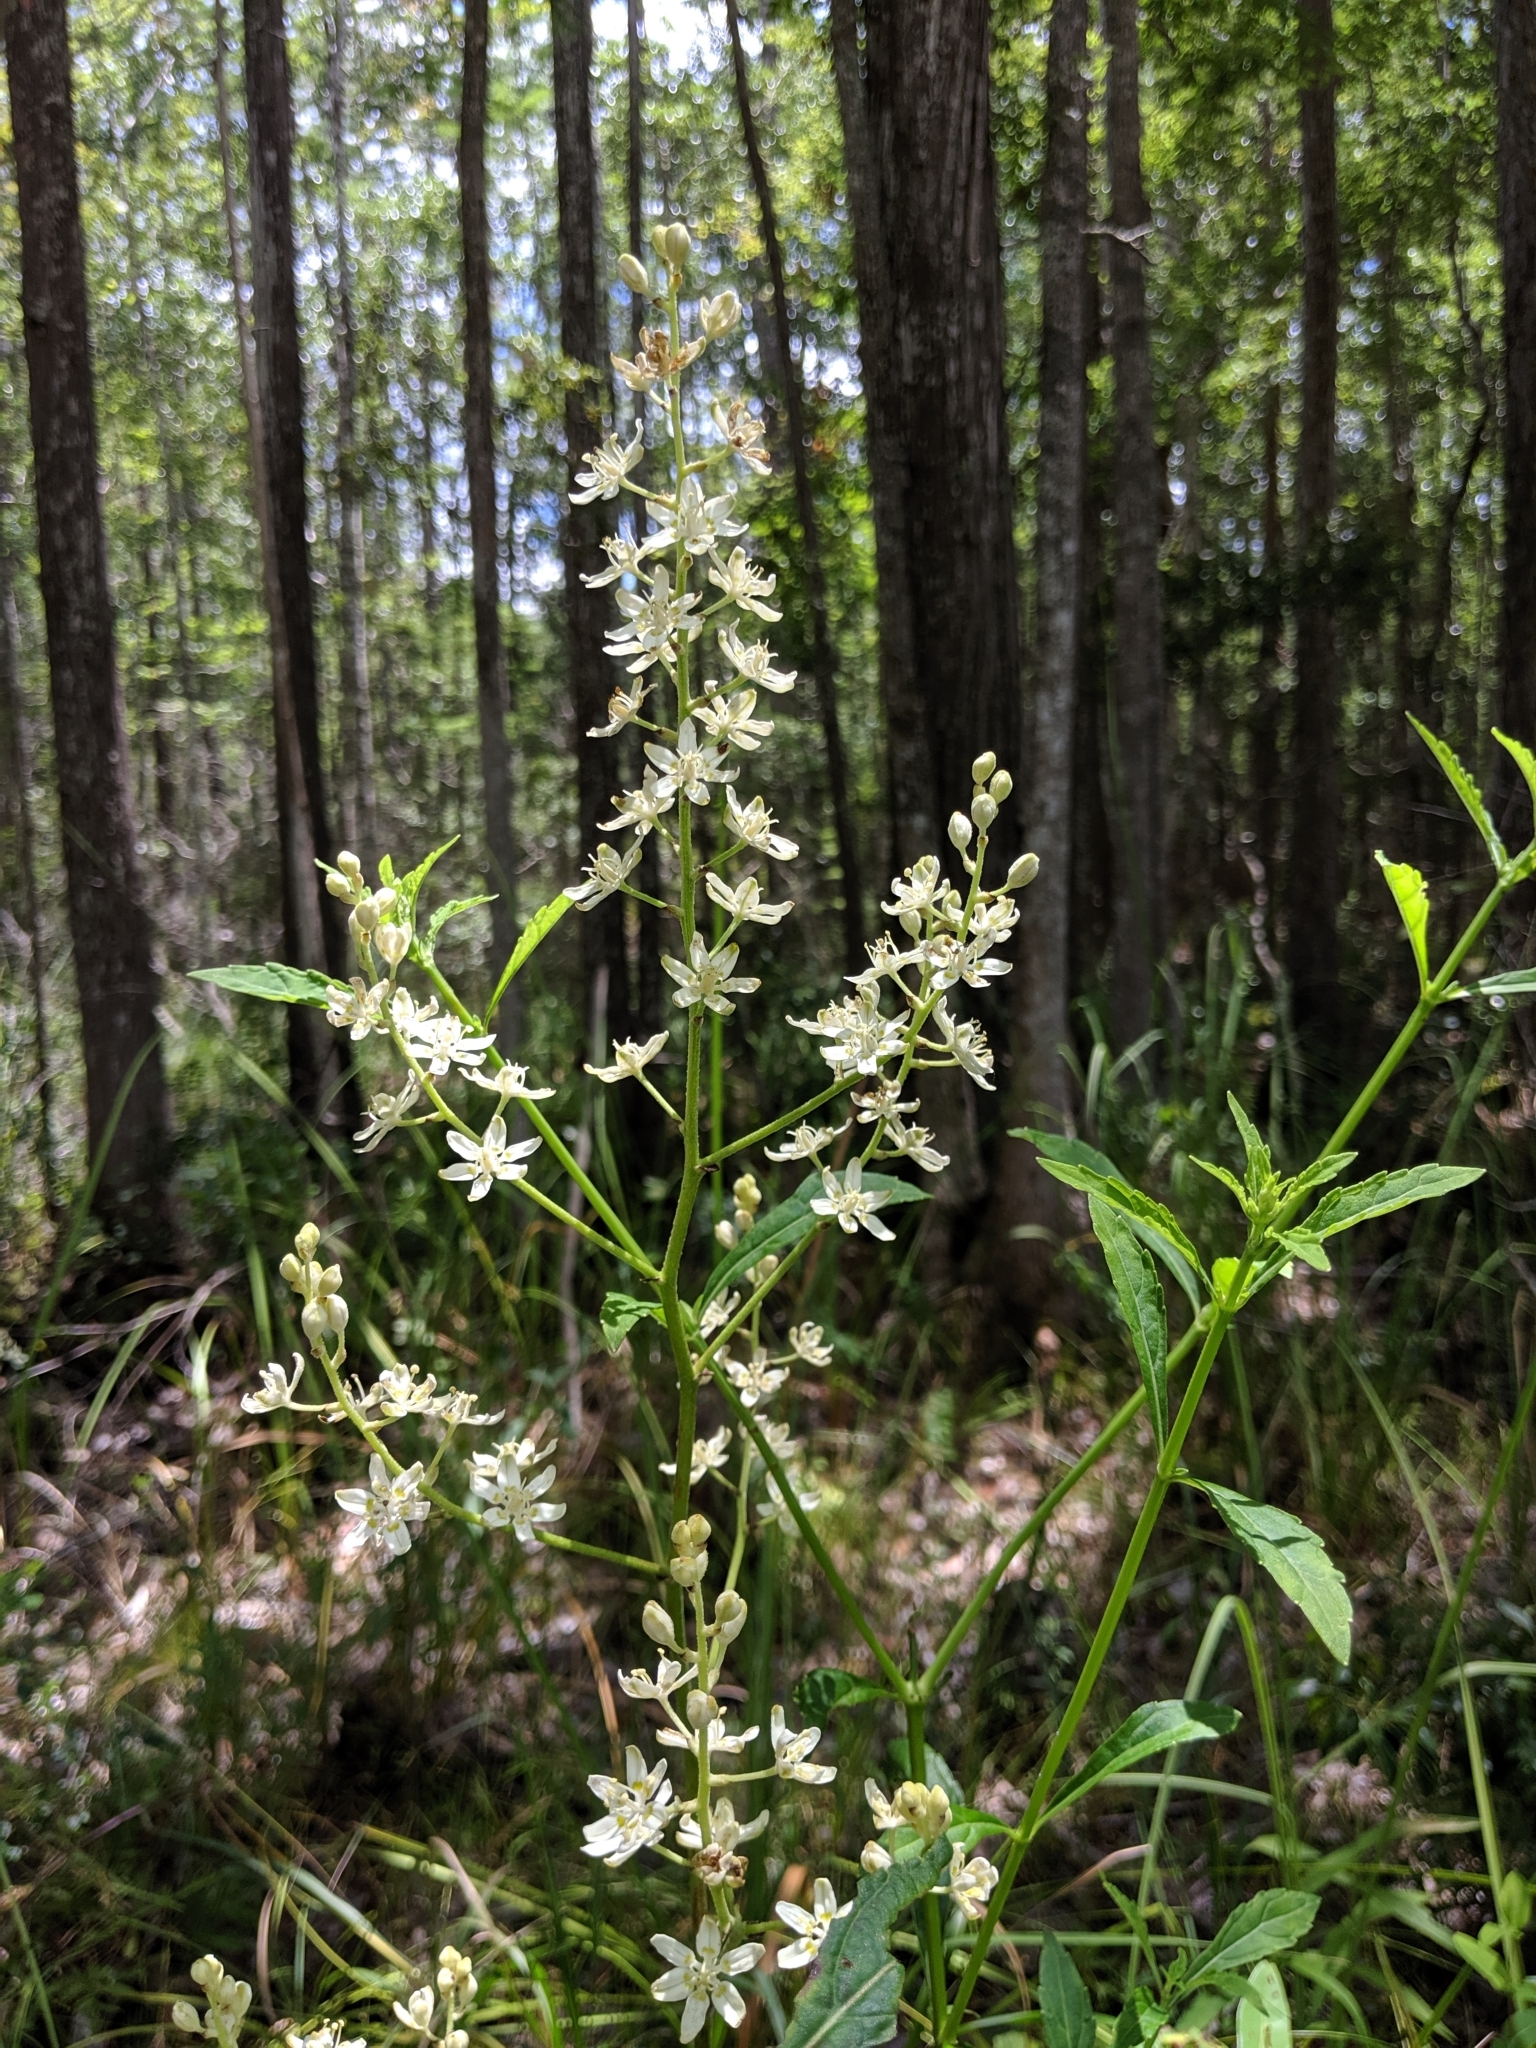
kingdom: Plantae
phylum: Tracheophyta
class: Liliopsida
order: Liliales
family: Melanthiaceae
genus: Melanthium
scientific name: Melanthium virginicum
